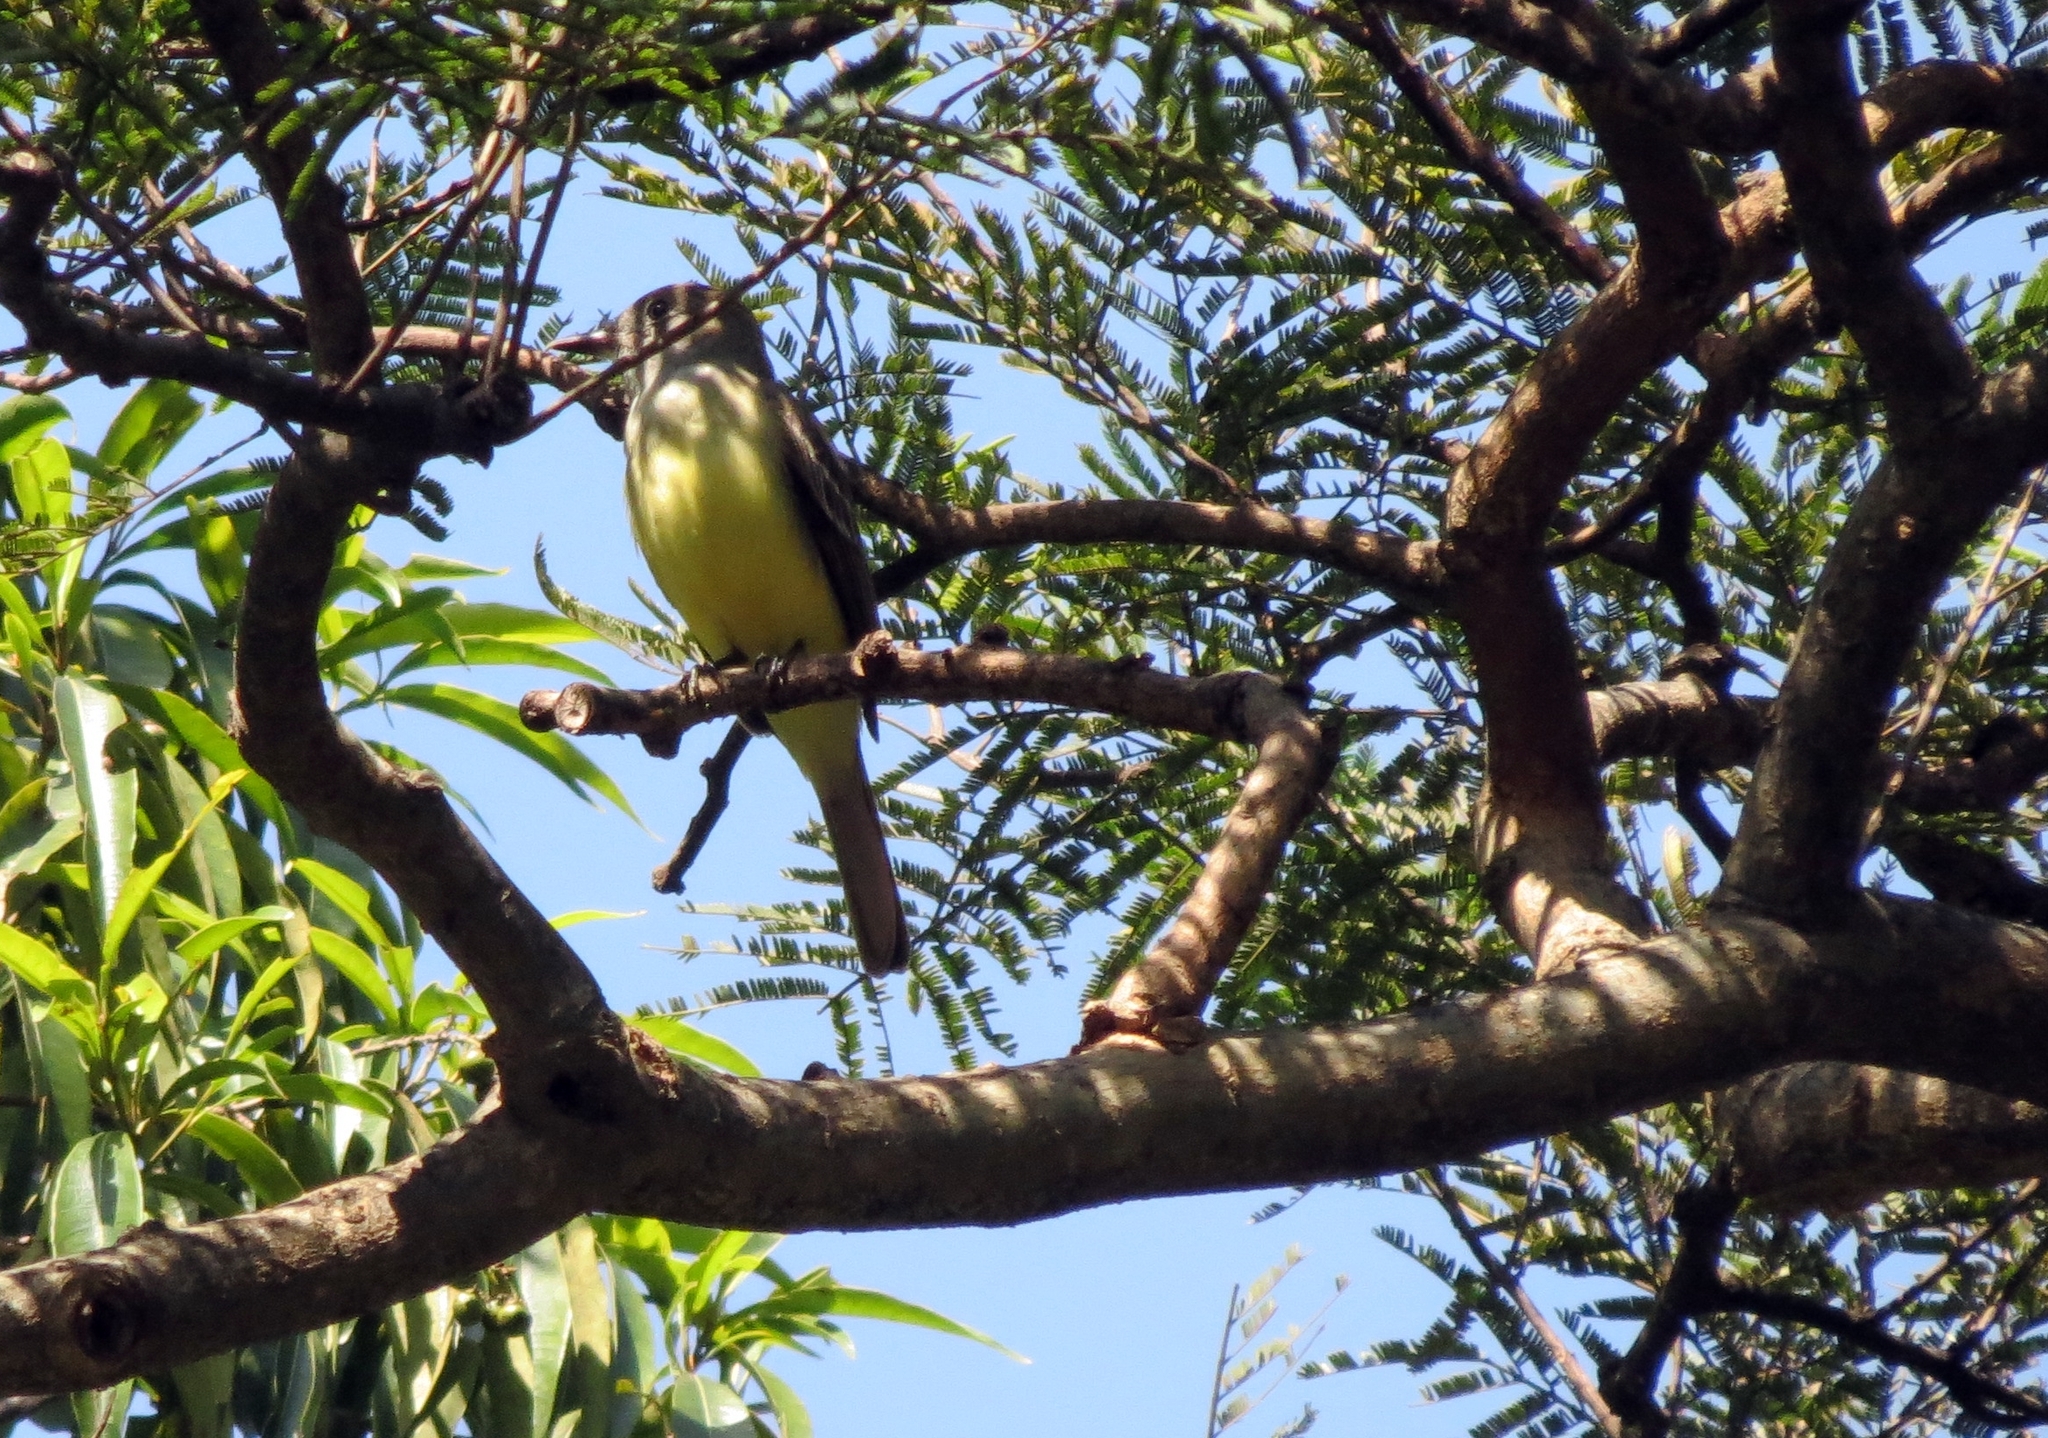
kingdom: Animalia
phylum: Chordata
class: Aves
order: Passeriformes
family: Tyrannidae
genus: Myiarchus
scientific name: Myiarchus crinitus
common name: Great crested flycatcher
